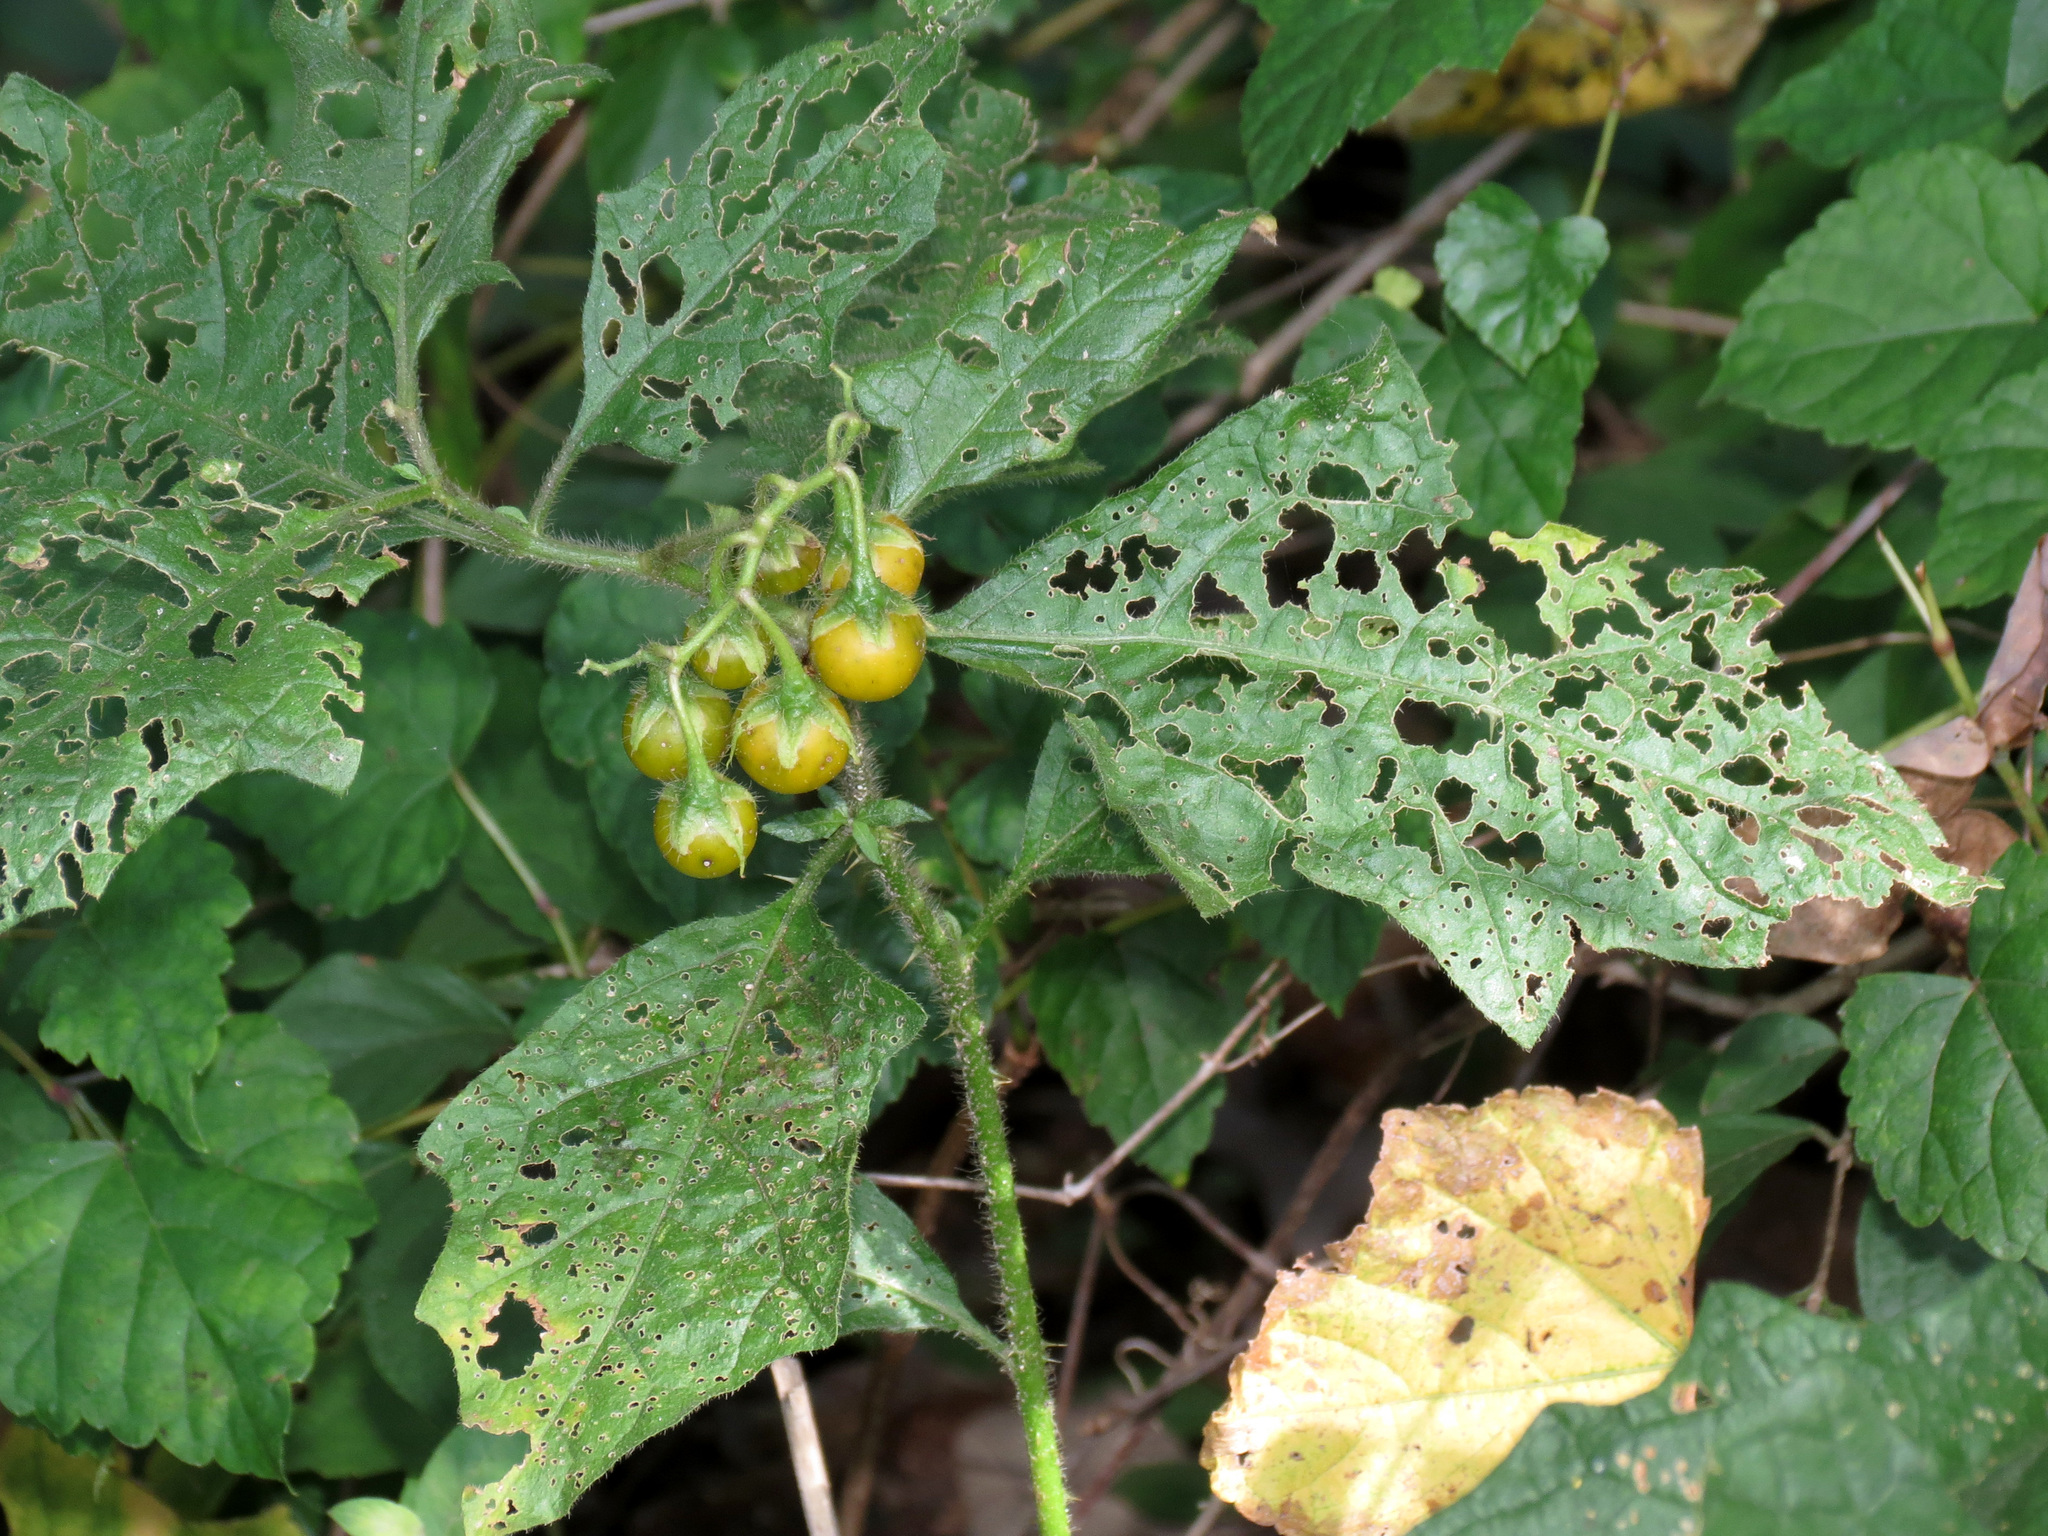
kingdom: Plantae
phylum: Tracheophyta
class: Magnoliopsida
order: Solanales
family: Solanaceae
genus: Solanum
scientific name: Solanum carolinense
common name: Horse-nettle
